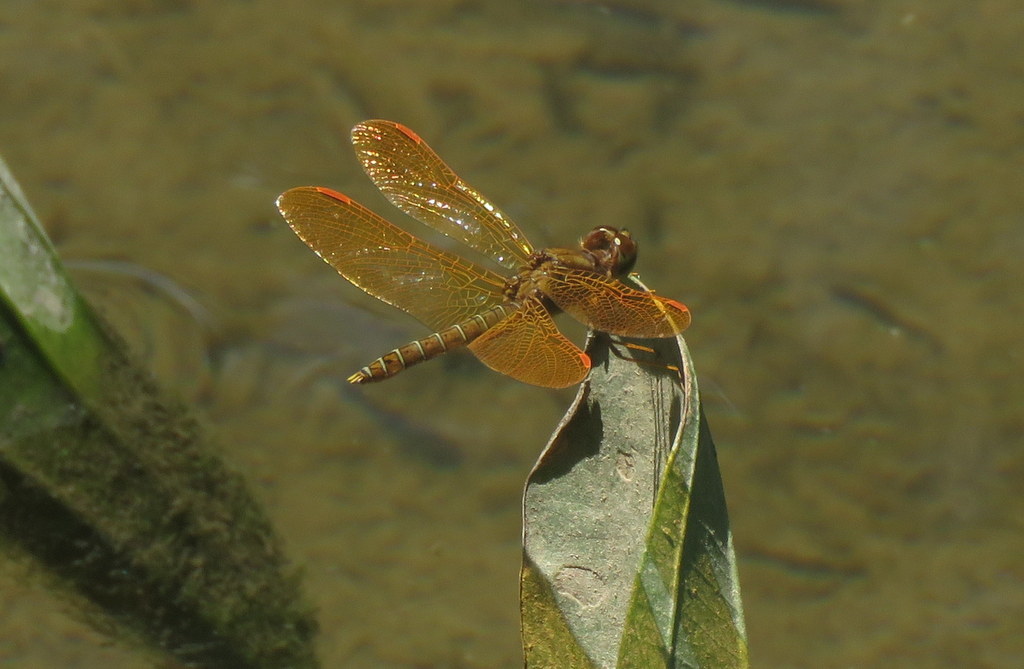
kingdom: Animalia
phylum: Arthropoda
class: Insecta
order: Odonata
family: Libellulidae
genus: Perithemis
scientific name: Perithemis tenera
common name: Eastern amberwing
